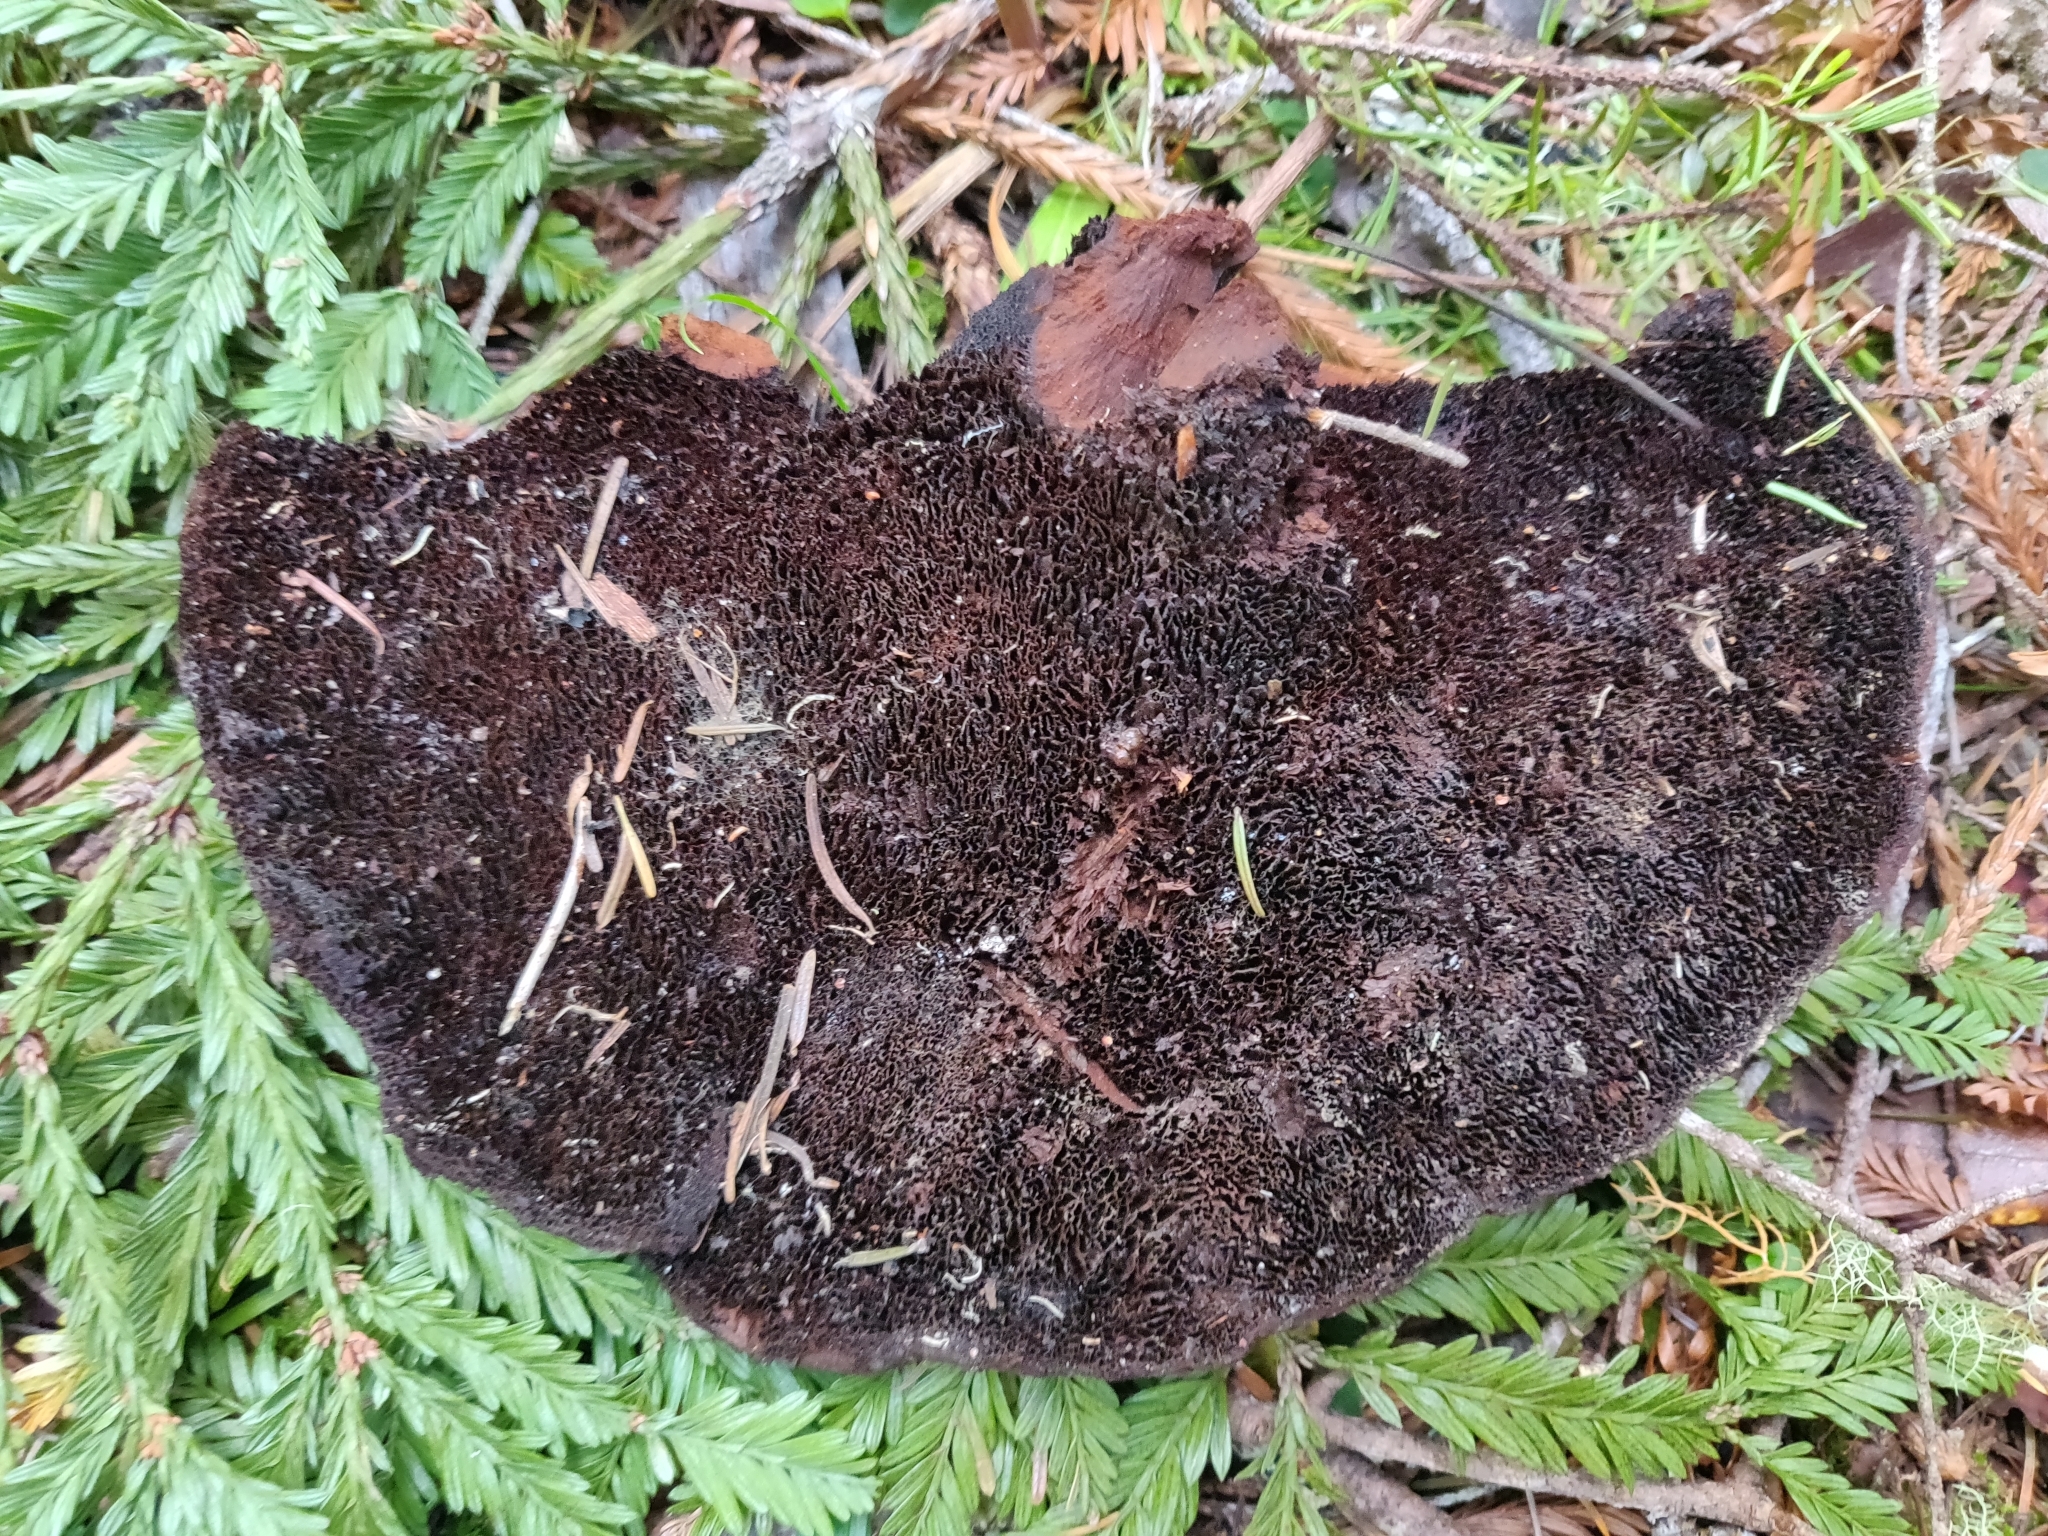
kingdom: Fungi
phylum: Basidiomycota
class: Agaricomycetes
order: Polyporales
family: Laetiporaceae
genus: Phaeolus
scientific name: Phaeolus schweinitzii
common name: Dyer's mazegill
